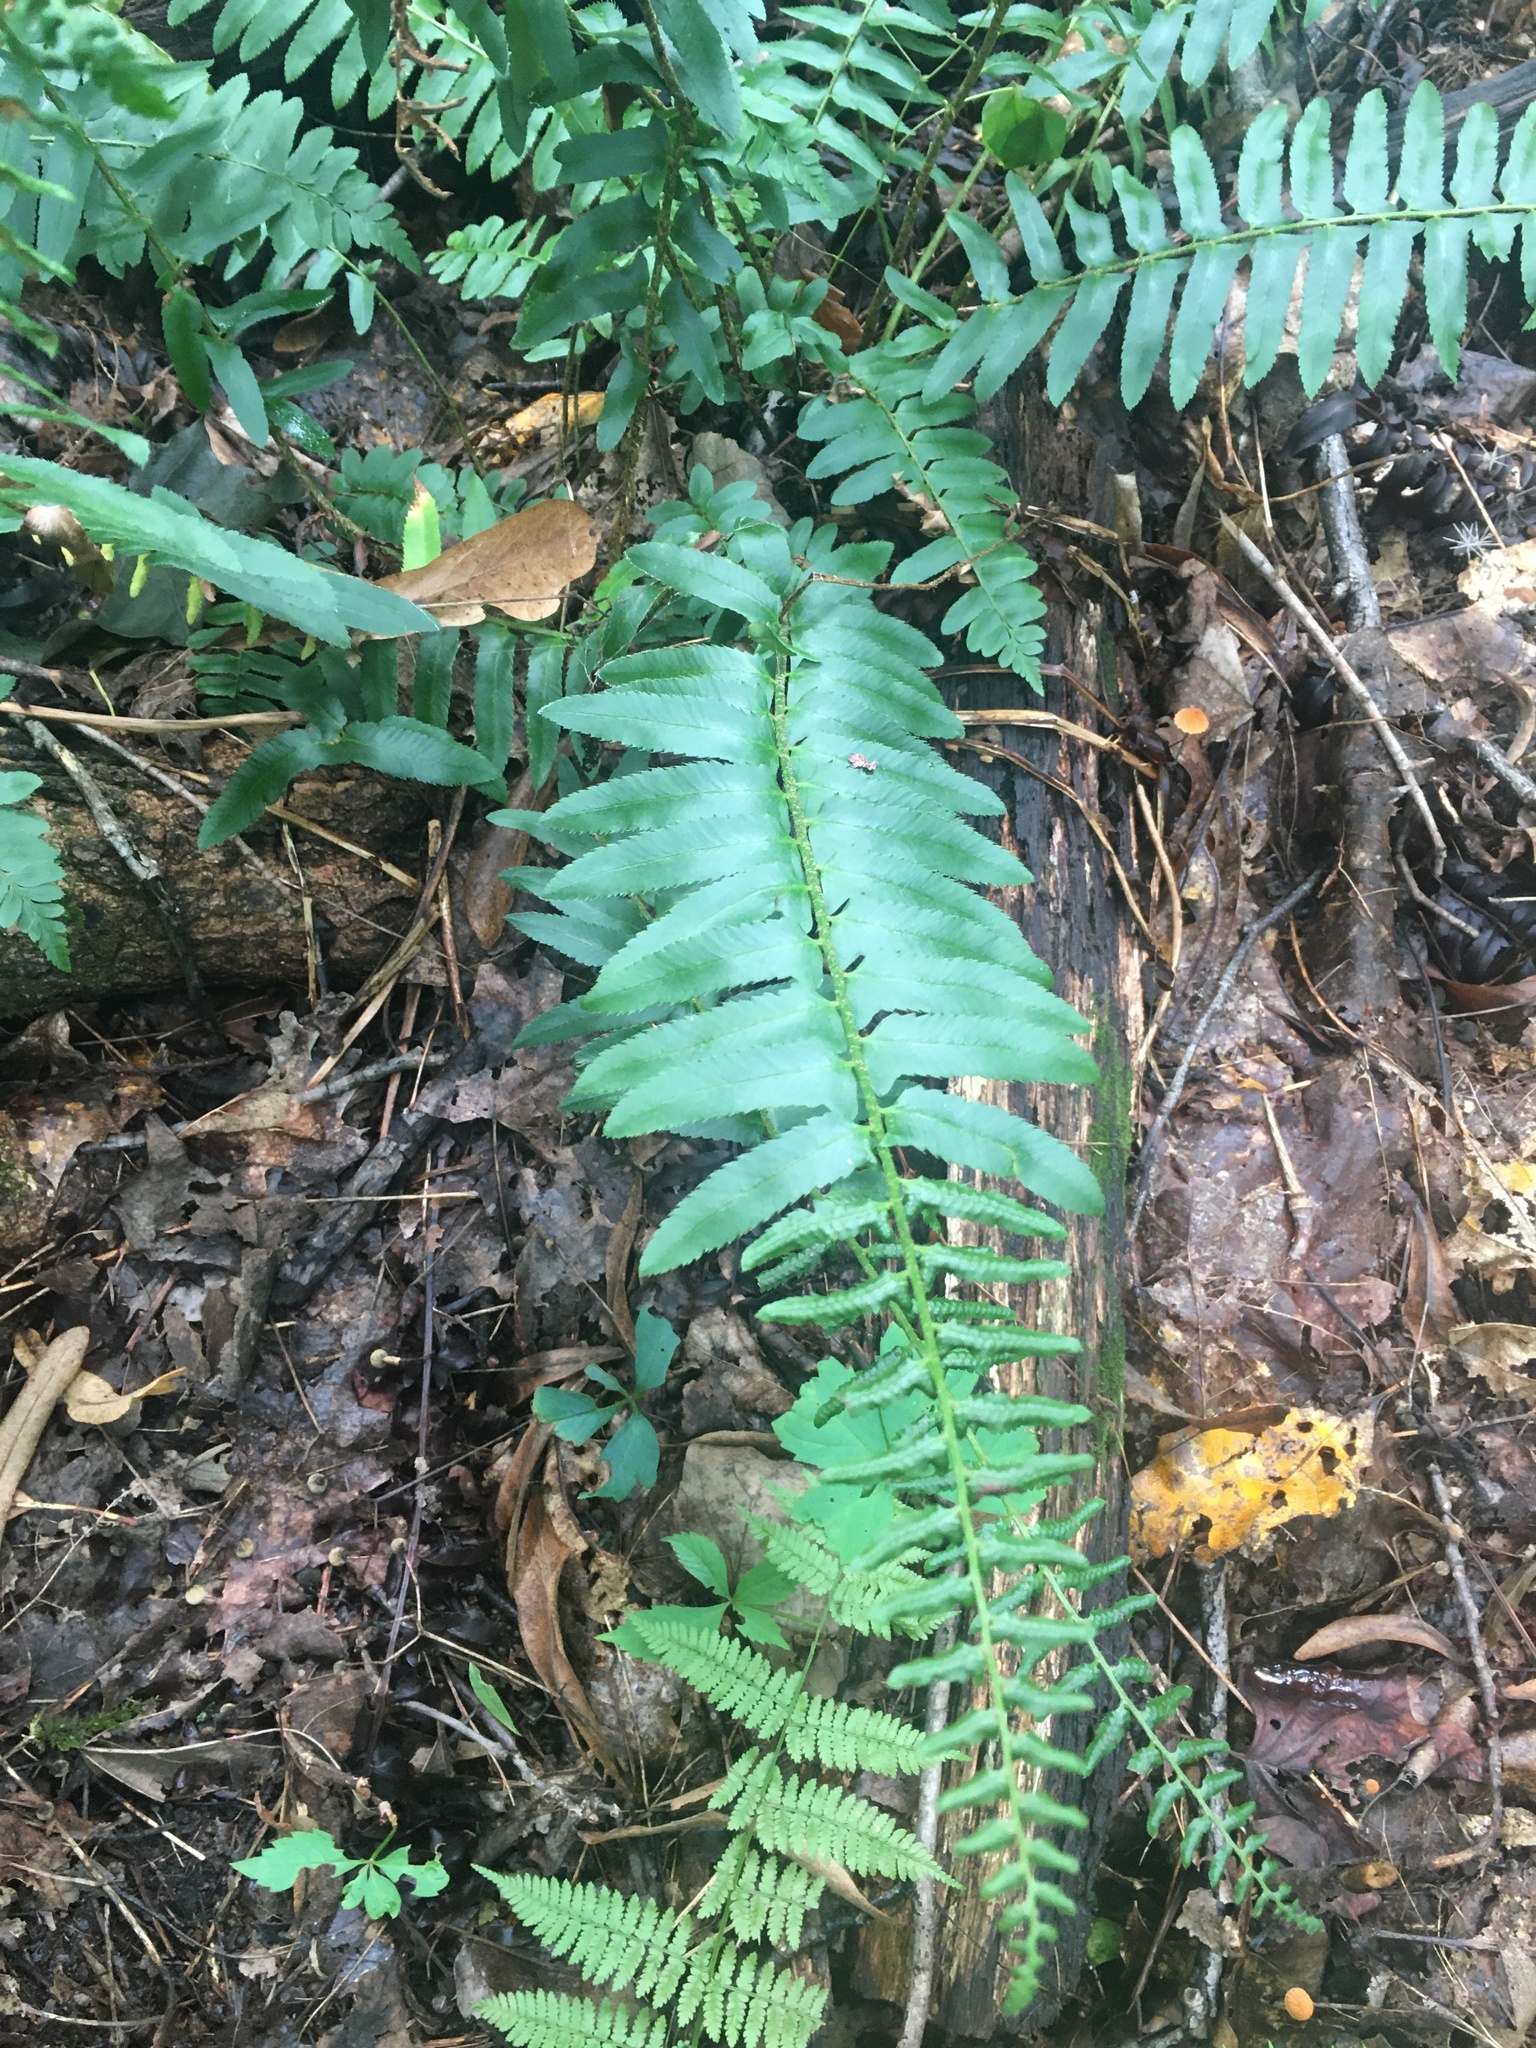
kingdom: Plantae
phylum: Tracheophyta
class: Polypodiopsida
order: Polypodiales
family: Dryopteridaceae
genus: Polystichum
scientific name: Polystichum acrostichoides
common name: Christmas fern
